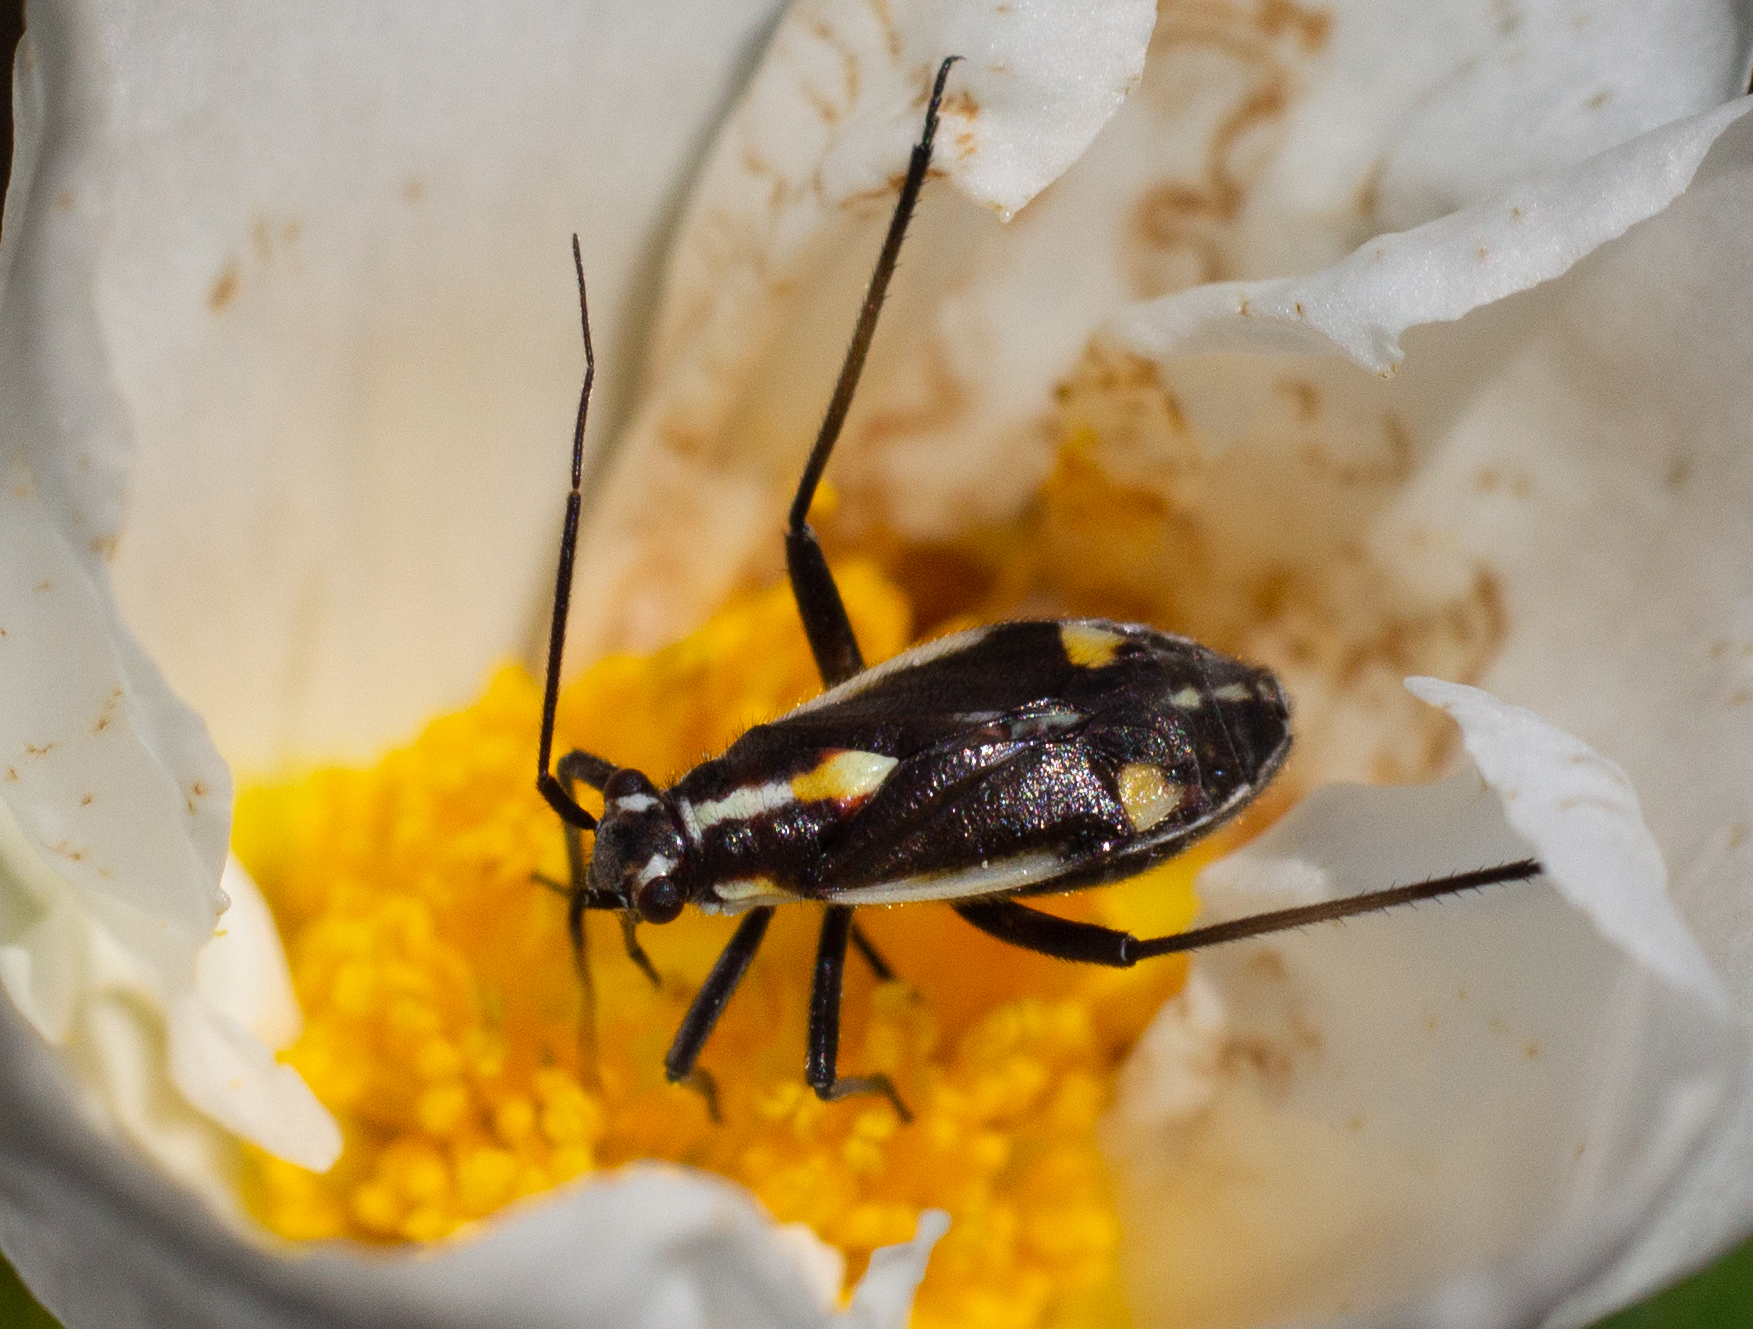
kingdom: Animalia
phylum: Arthropoda
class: Insecta
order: Hemiptera
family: Miridae
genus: Capsodes
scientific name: Capsodes sulcatus
